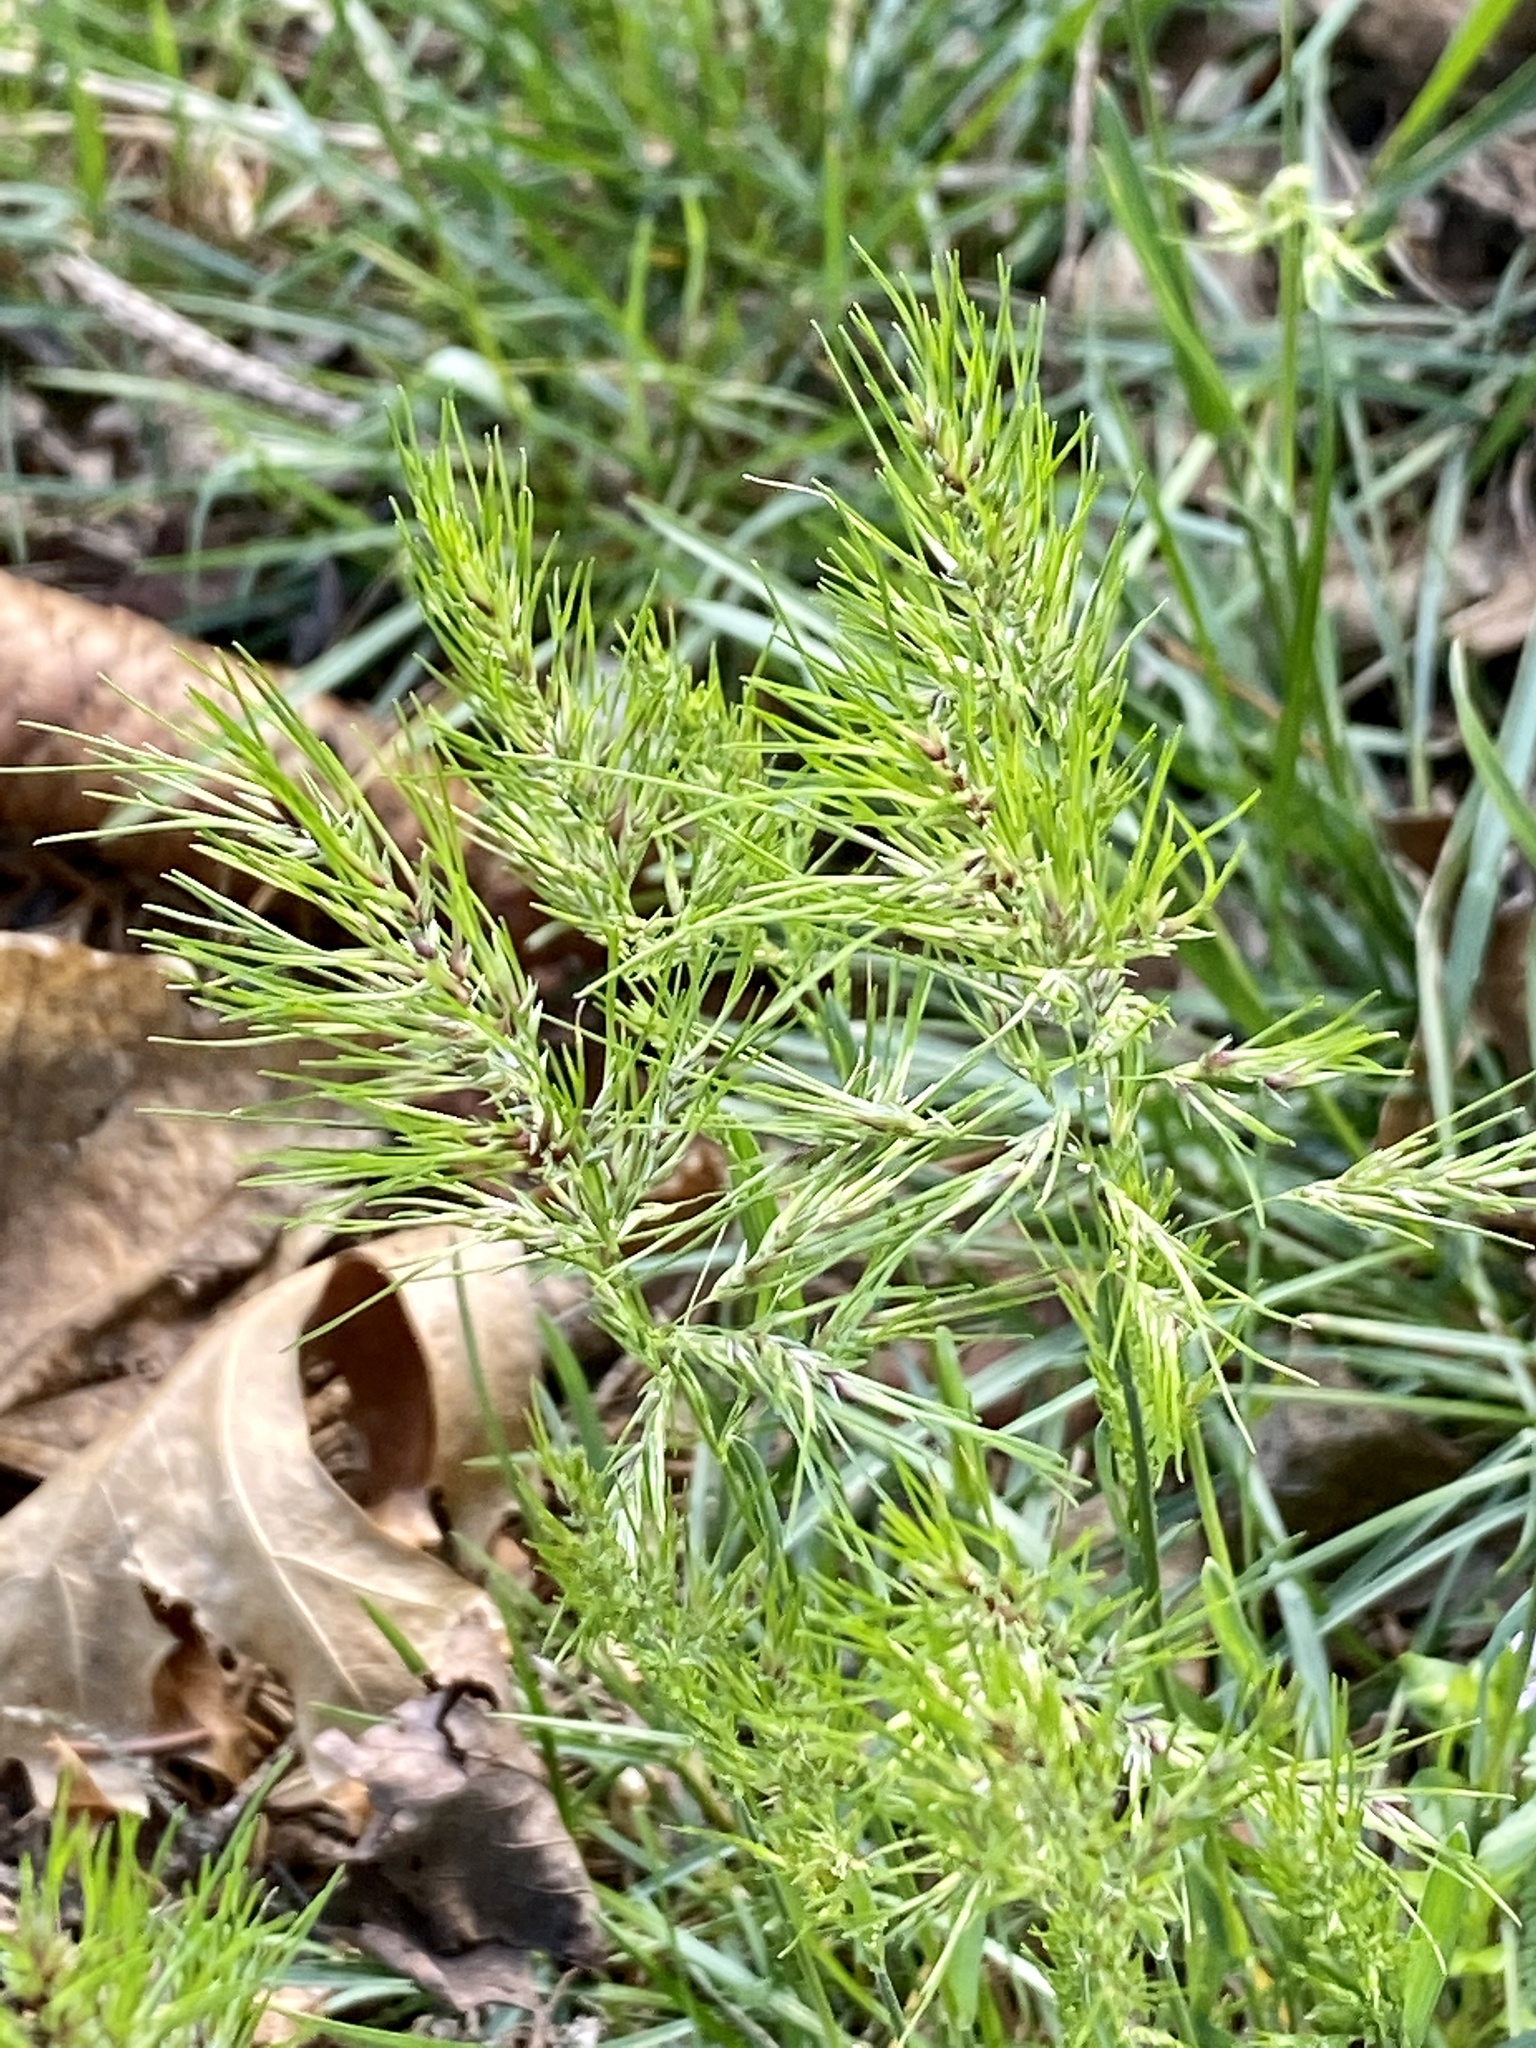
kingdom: Plantae
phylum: Tracheophyta
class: Liliopsida
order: Poales
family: Poaceae
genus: Poa
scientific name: Poa bulbosa
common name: Bulbous bluegrass
